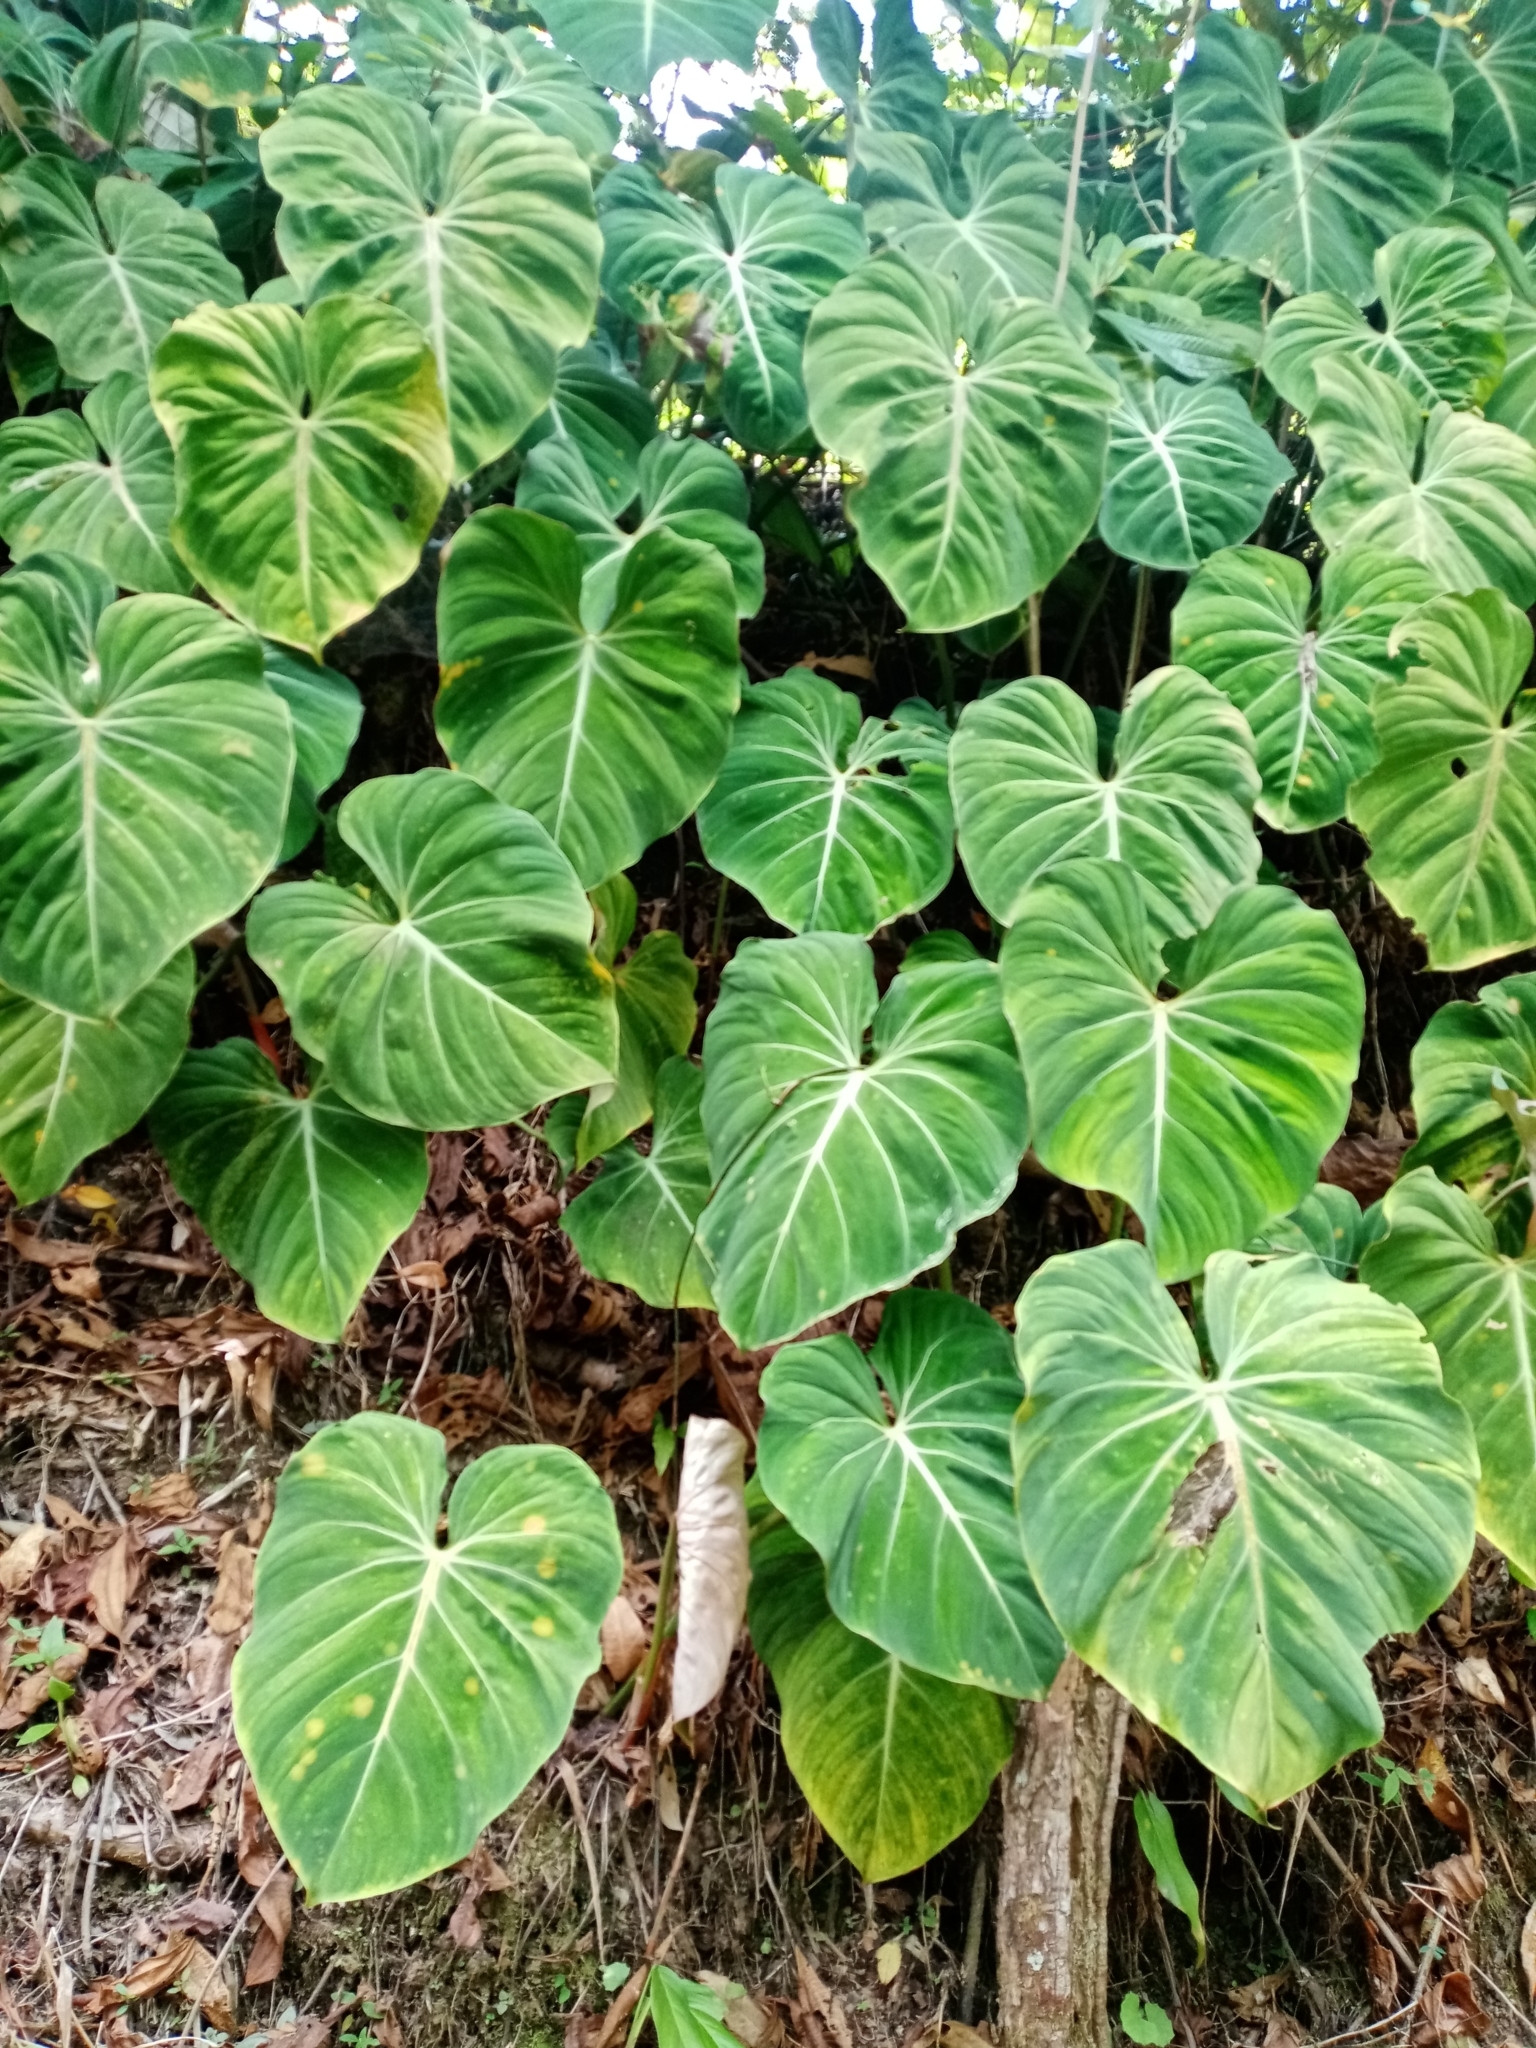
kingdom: Plantae
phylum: Tracheophyta
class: Liliopsida
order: Alismatales
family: Araceae
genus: Philodendron
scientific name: Philodendron gloriosum
